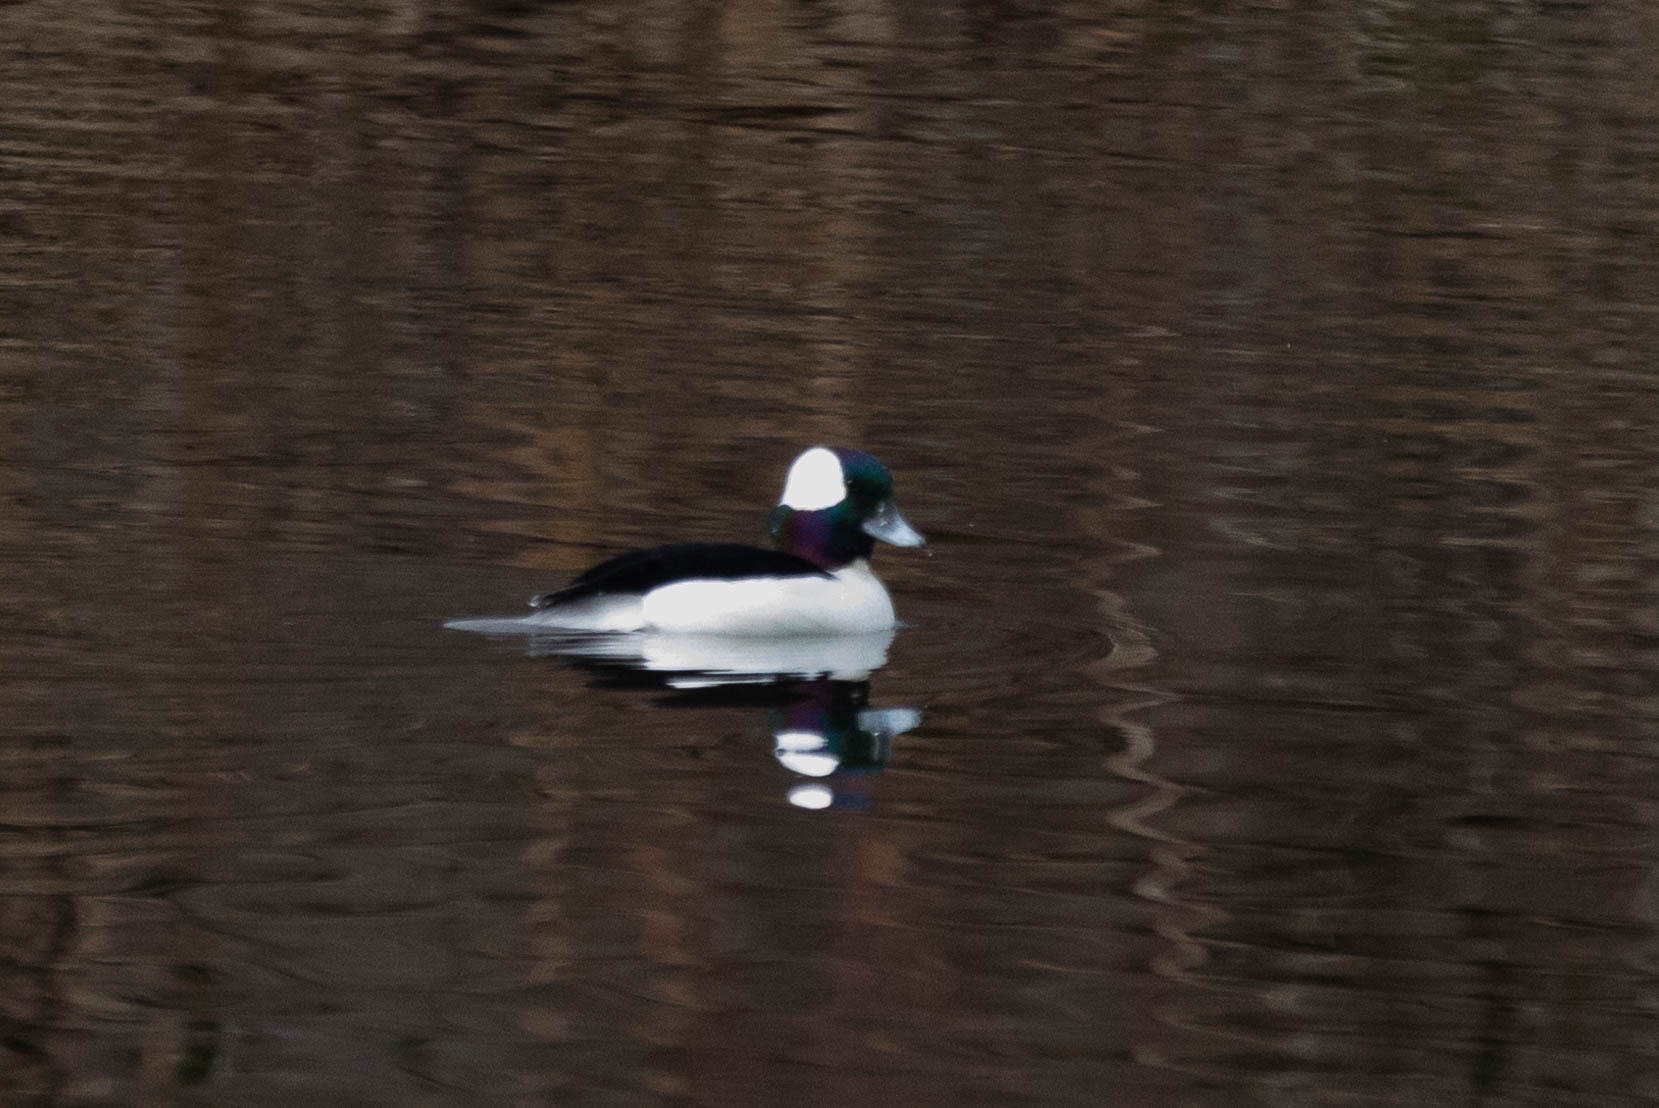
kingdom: Animalia
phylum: Chordata
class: Aves
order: Anseriformes
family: Anatidae
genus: Bucephala
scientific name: Bucephala albeola
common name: Bufflehead
